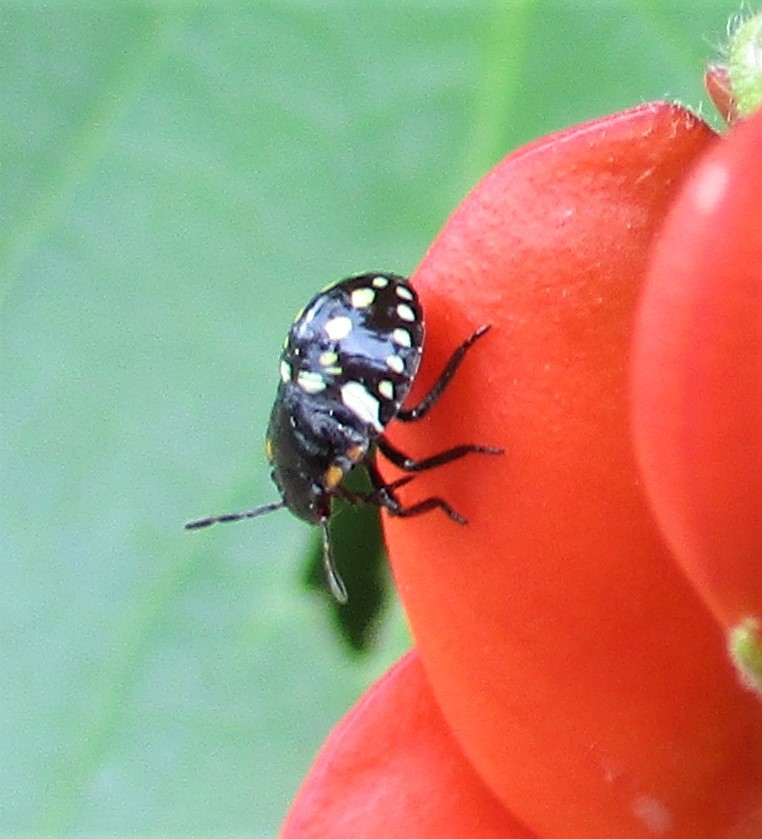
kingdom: Animalia
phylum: Arthropoda
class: Insecta
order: Hemiptera
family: Pentatomidae
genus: Nezara
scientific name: Nezara viridula
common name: Southern green stink bug
